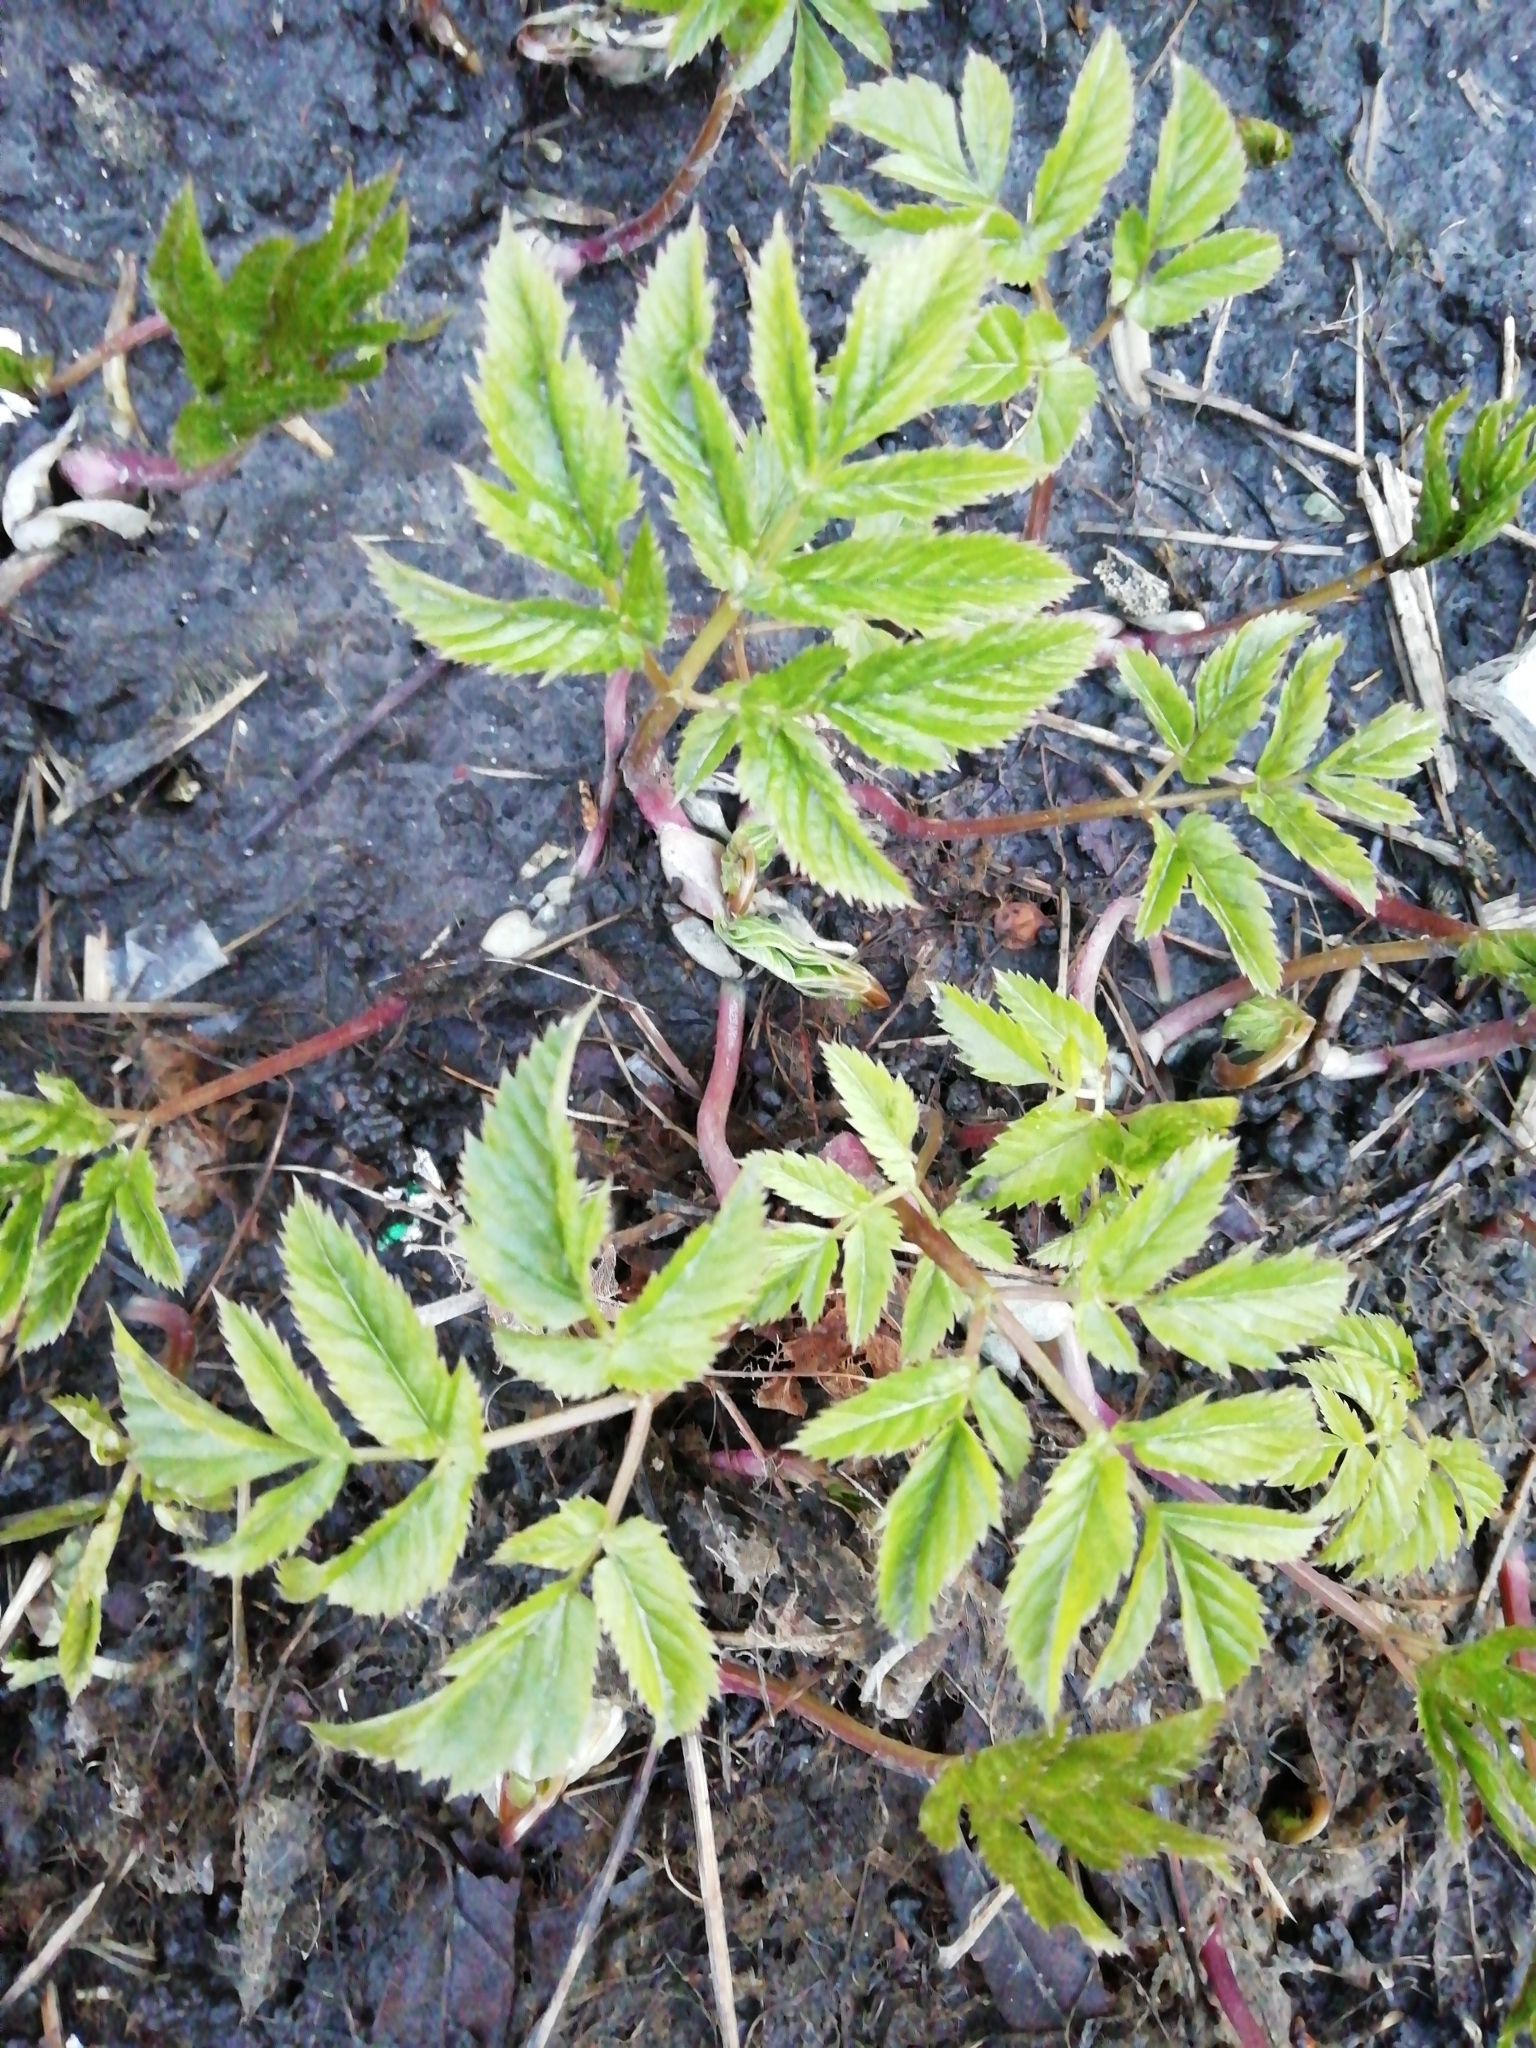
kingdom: Plantae
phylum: Tracheophyta
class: Magnoliopsida
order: Apiales
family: Apiaceae
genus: Aegopodium
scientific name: Aegopodium podagraria
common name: Ground-elder
